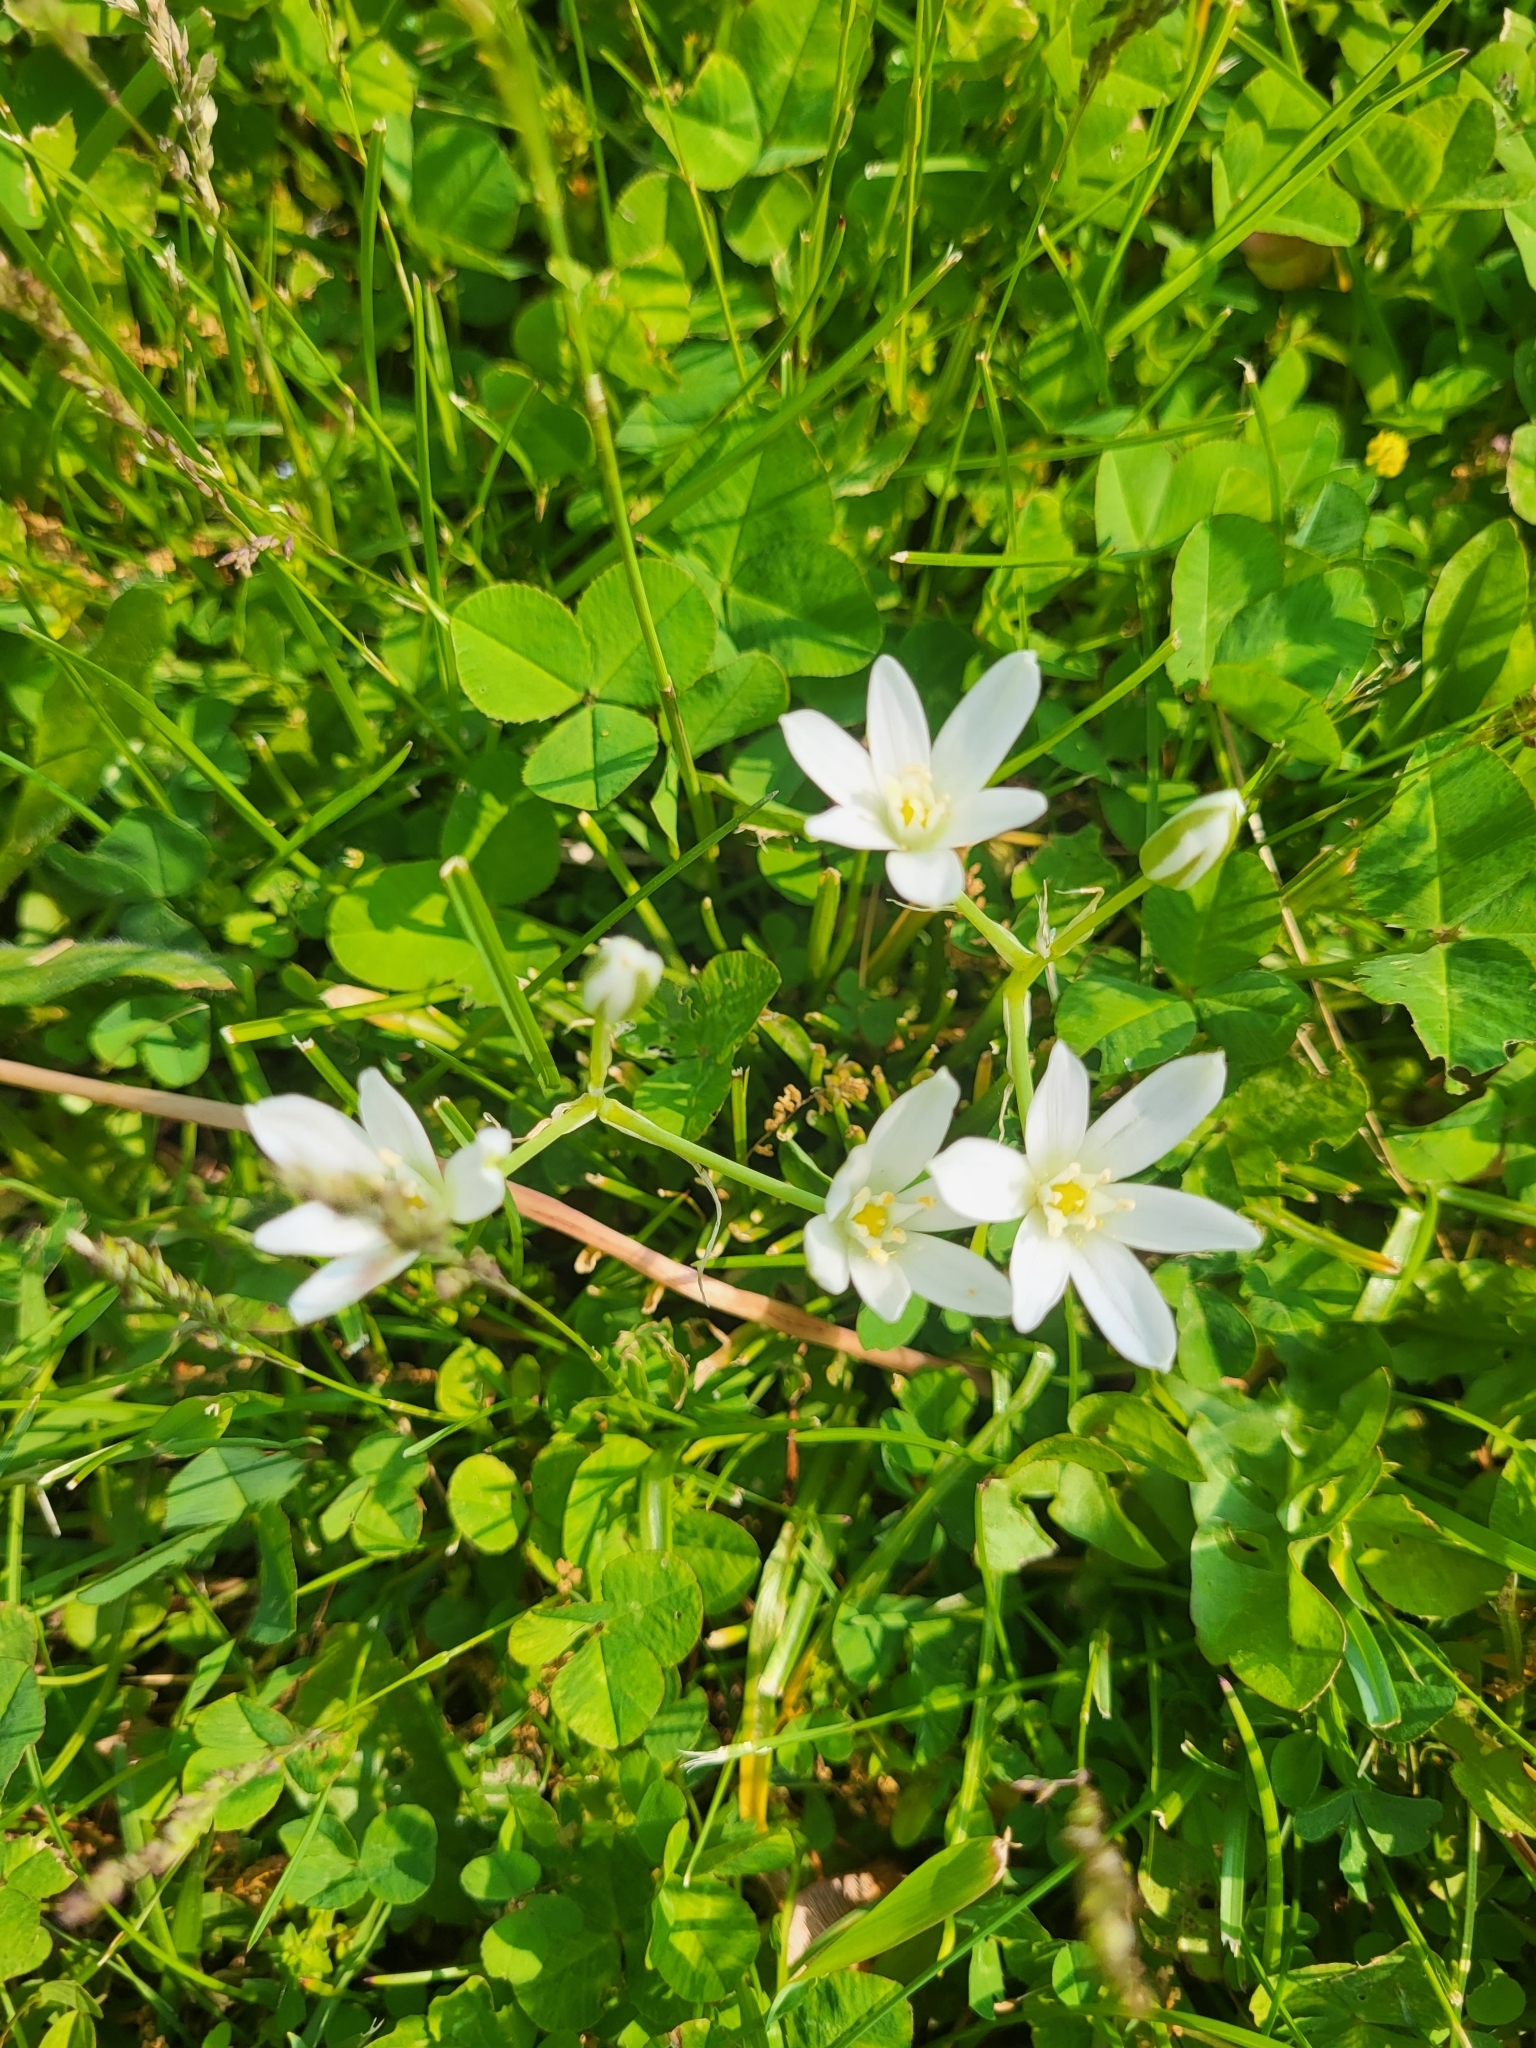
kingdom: Plantae
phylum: Tracheophyta
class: Liliopsida
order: Asparagales
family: Asparagaceae
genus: Ornithogalum
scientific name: Ornithogalum umbellatum
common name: Garden star-of-bethlehem
